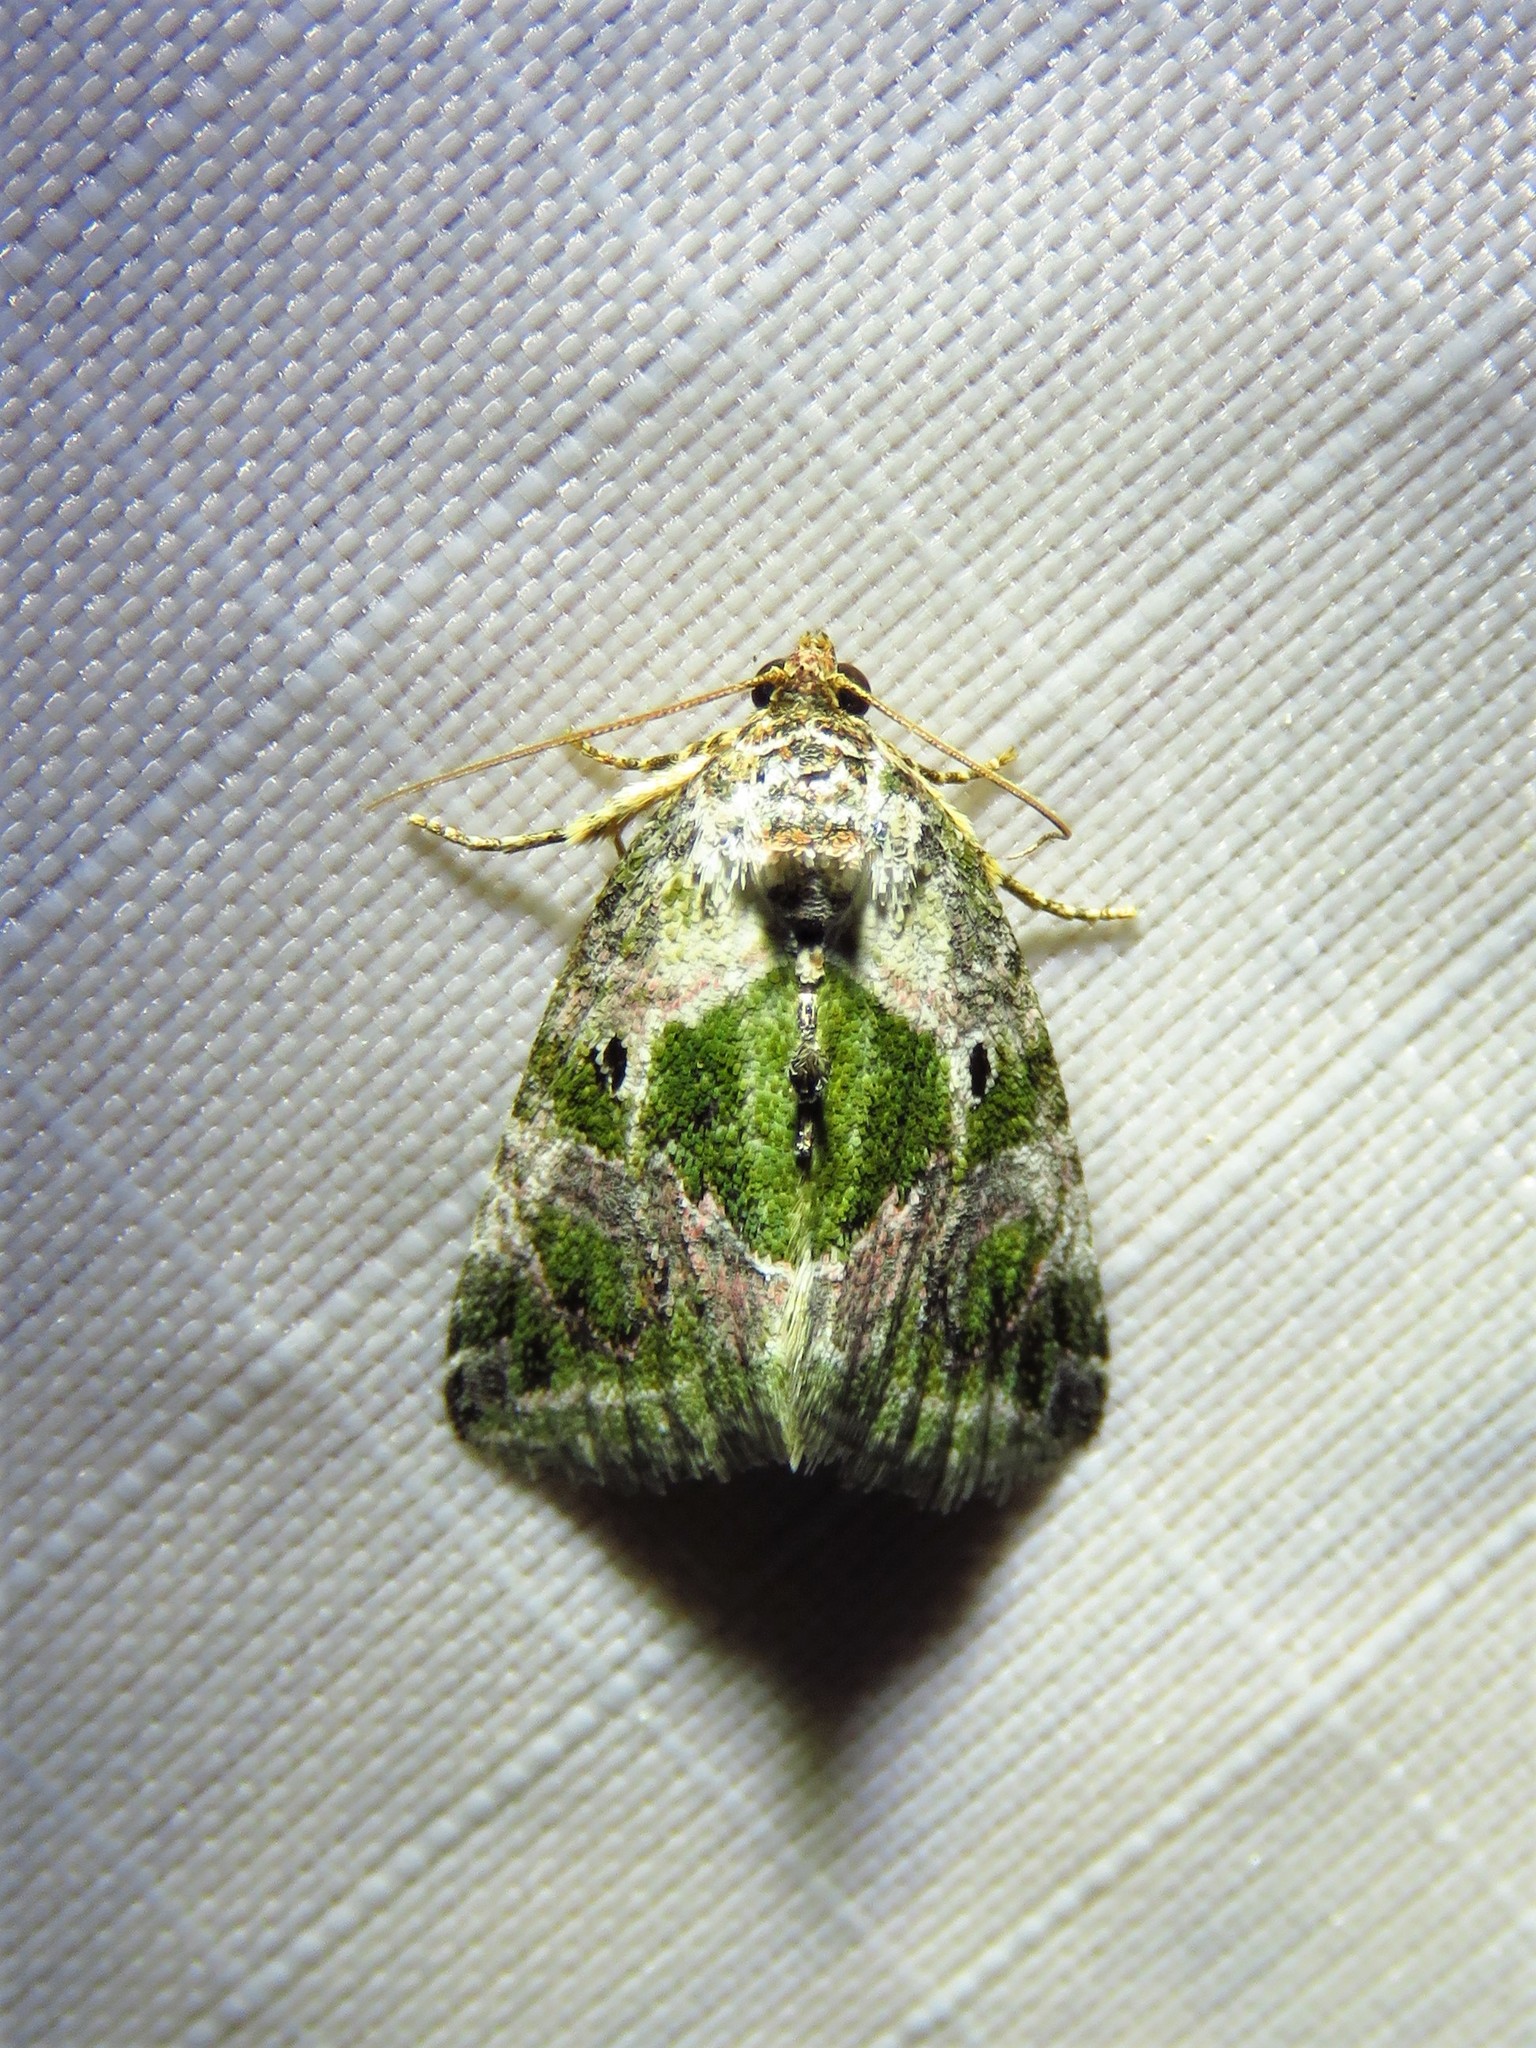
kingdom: Animalia
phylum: Arthropoda
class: Insecta
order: Lepidoptera
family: Noctuidae
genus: Maliattha
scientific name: Maliattha synochitis
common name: Black-dotted glyph
